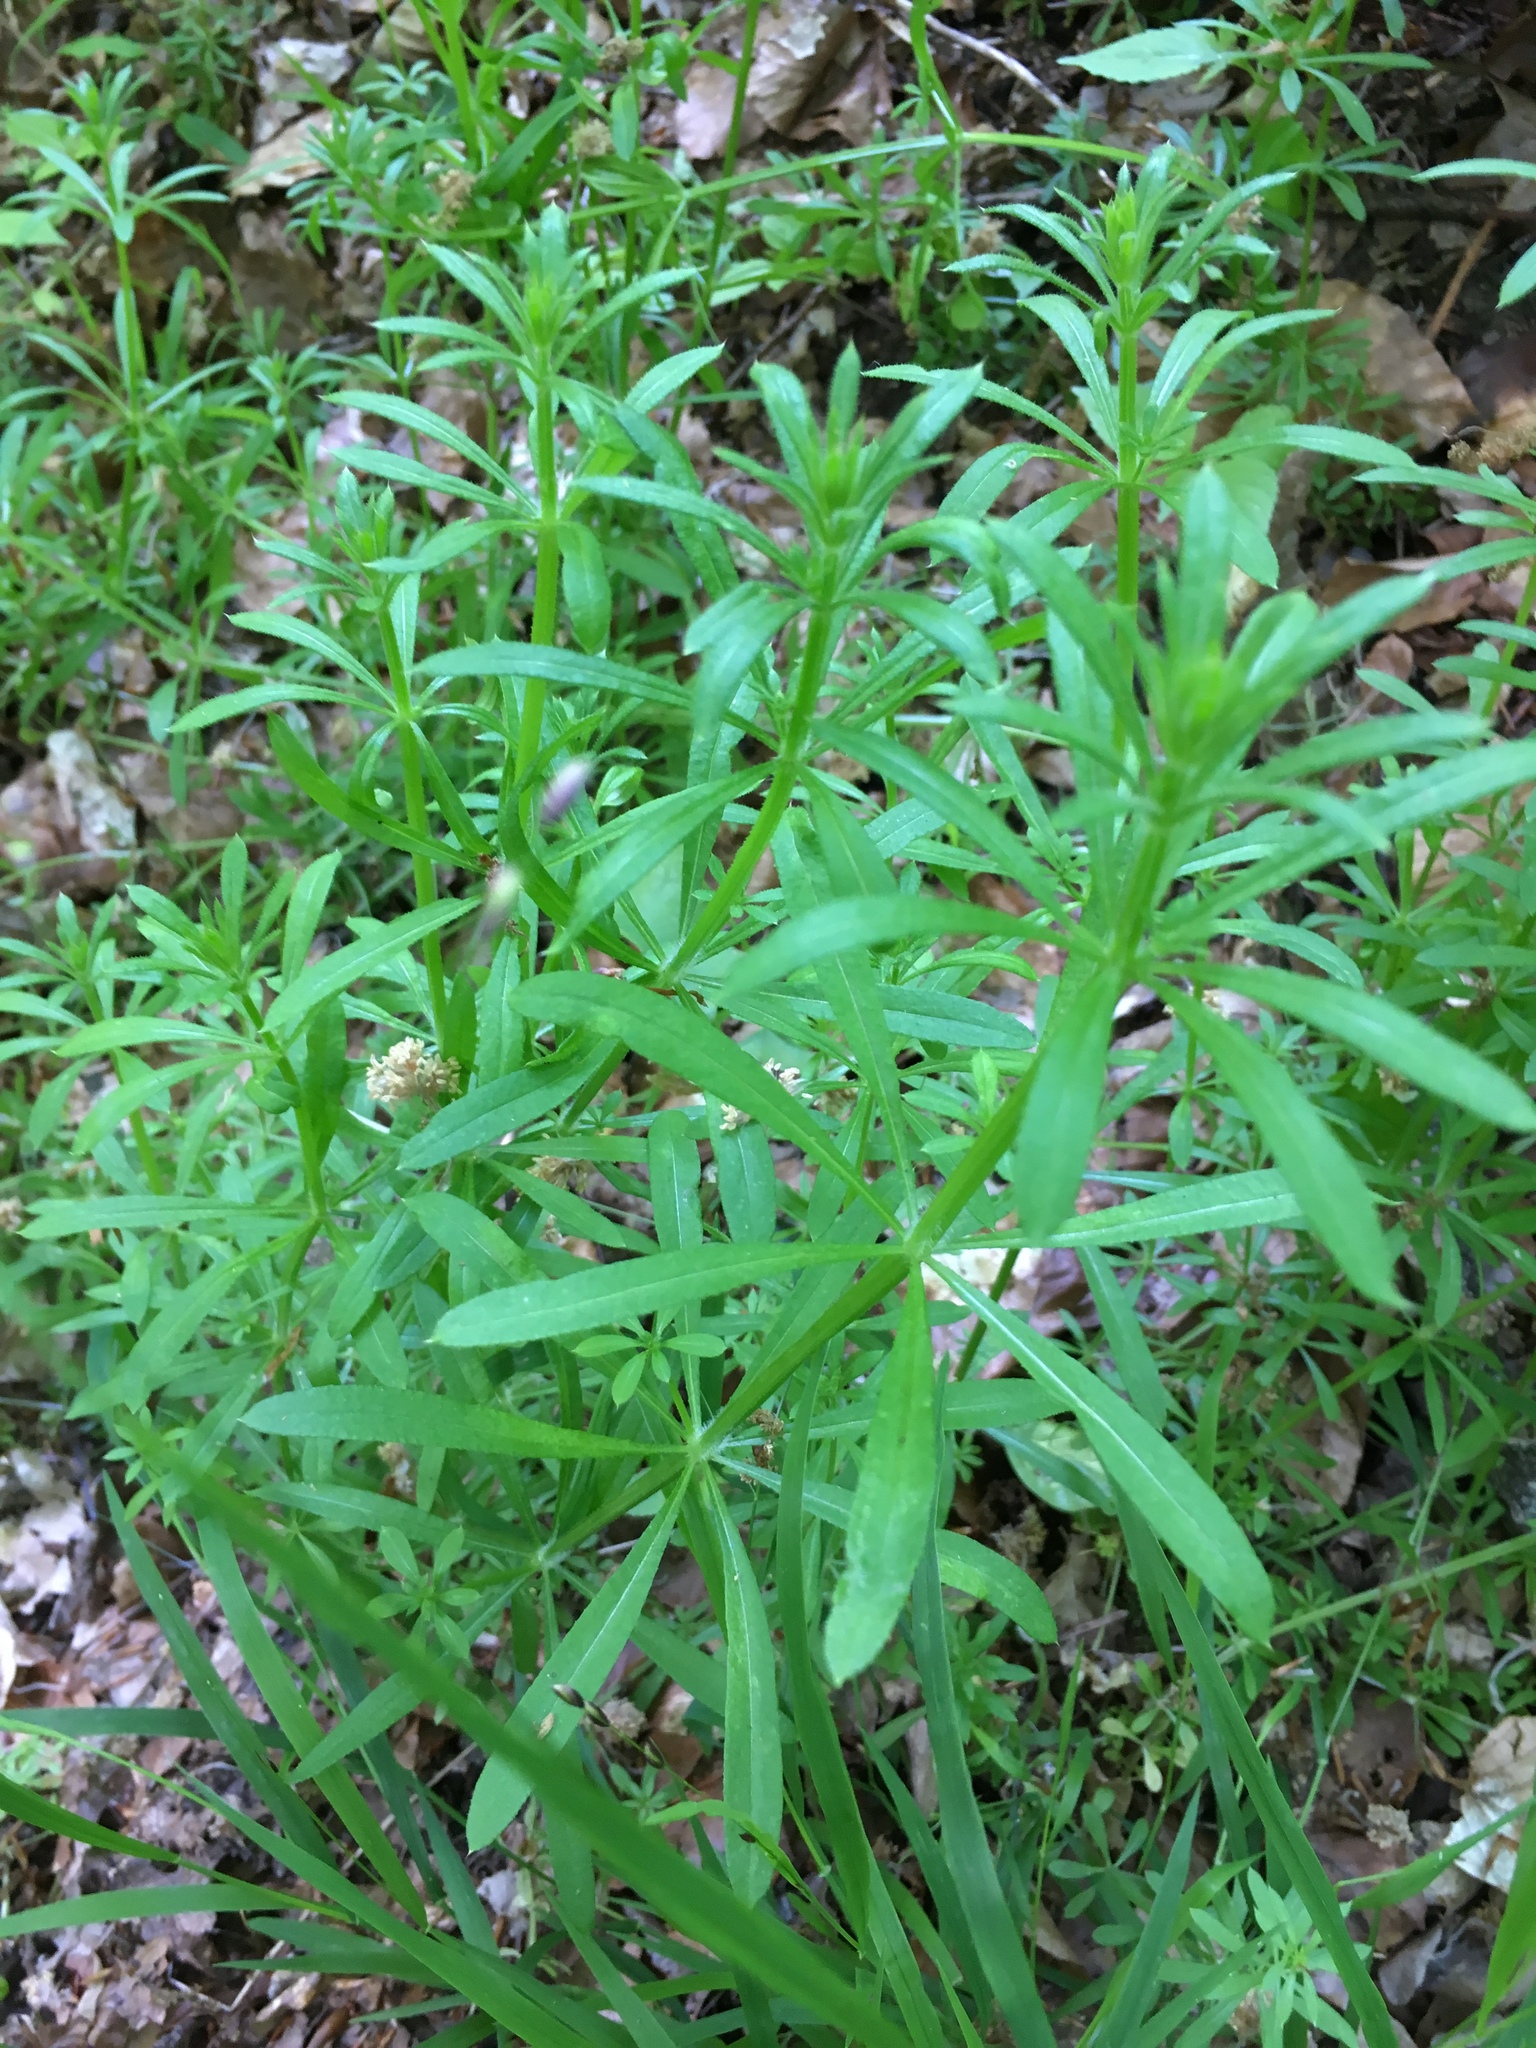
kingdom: Plantae
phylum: Tracheophyta
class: Magnoliopsida
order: Gentianales
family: Rubiaceae
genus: Galium
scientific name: Galium aparine
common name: Cleavers
